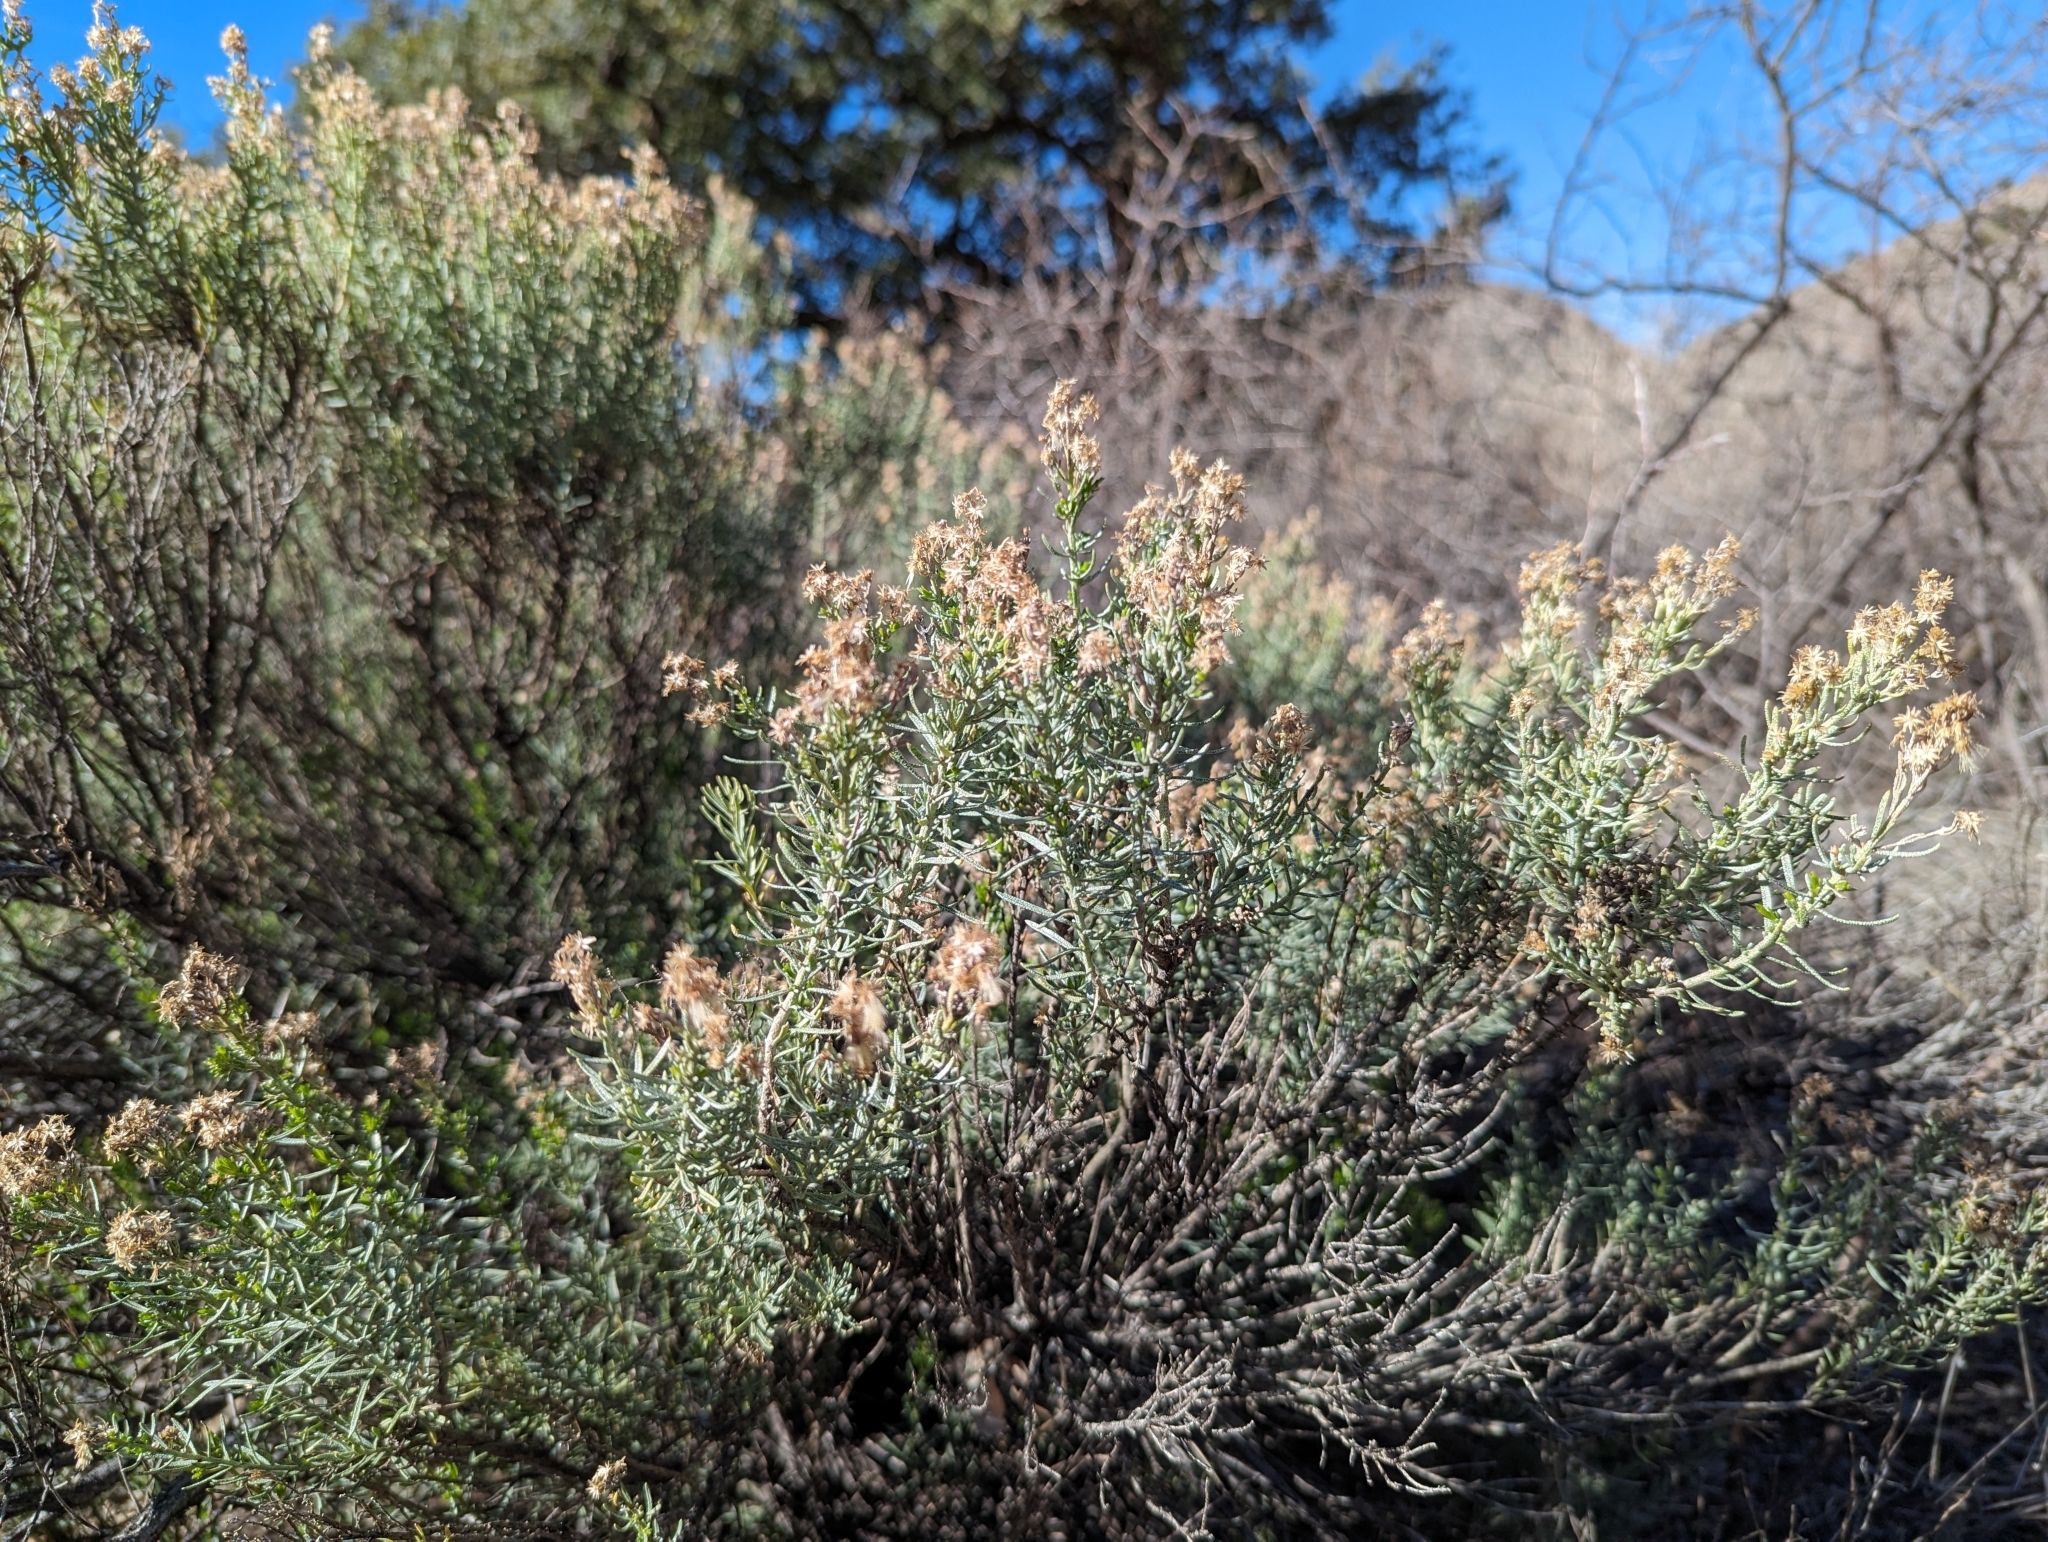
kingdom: Plantae
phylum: Tracheophyta
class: Magnoliopsida
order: Asterales
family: Asteraceae
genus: Isocoma
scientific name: Isocoma tenuisecta
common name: Burroweed
